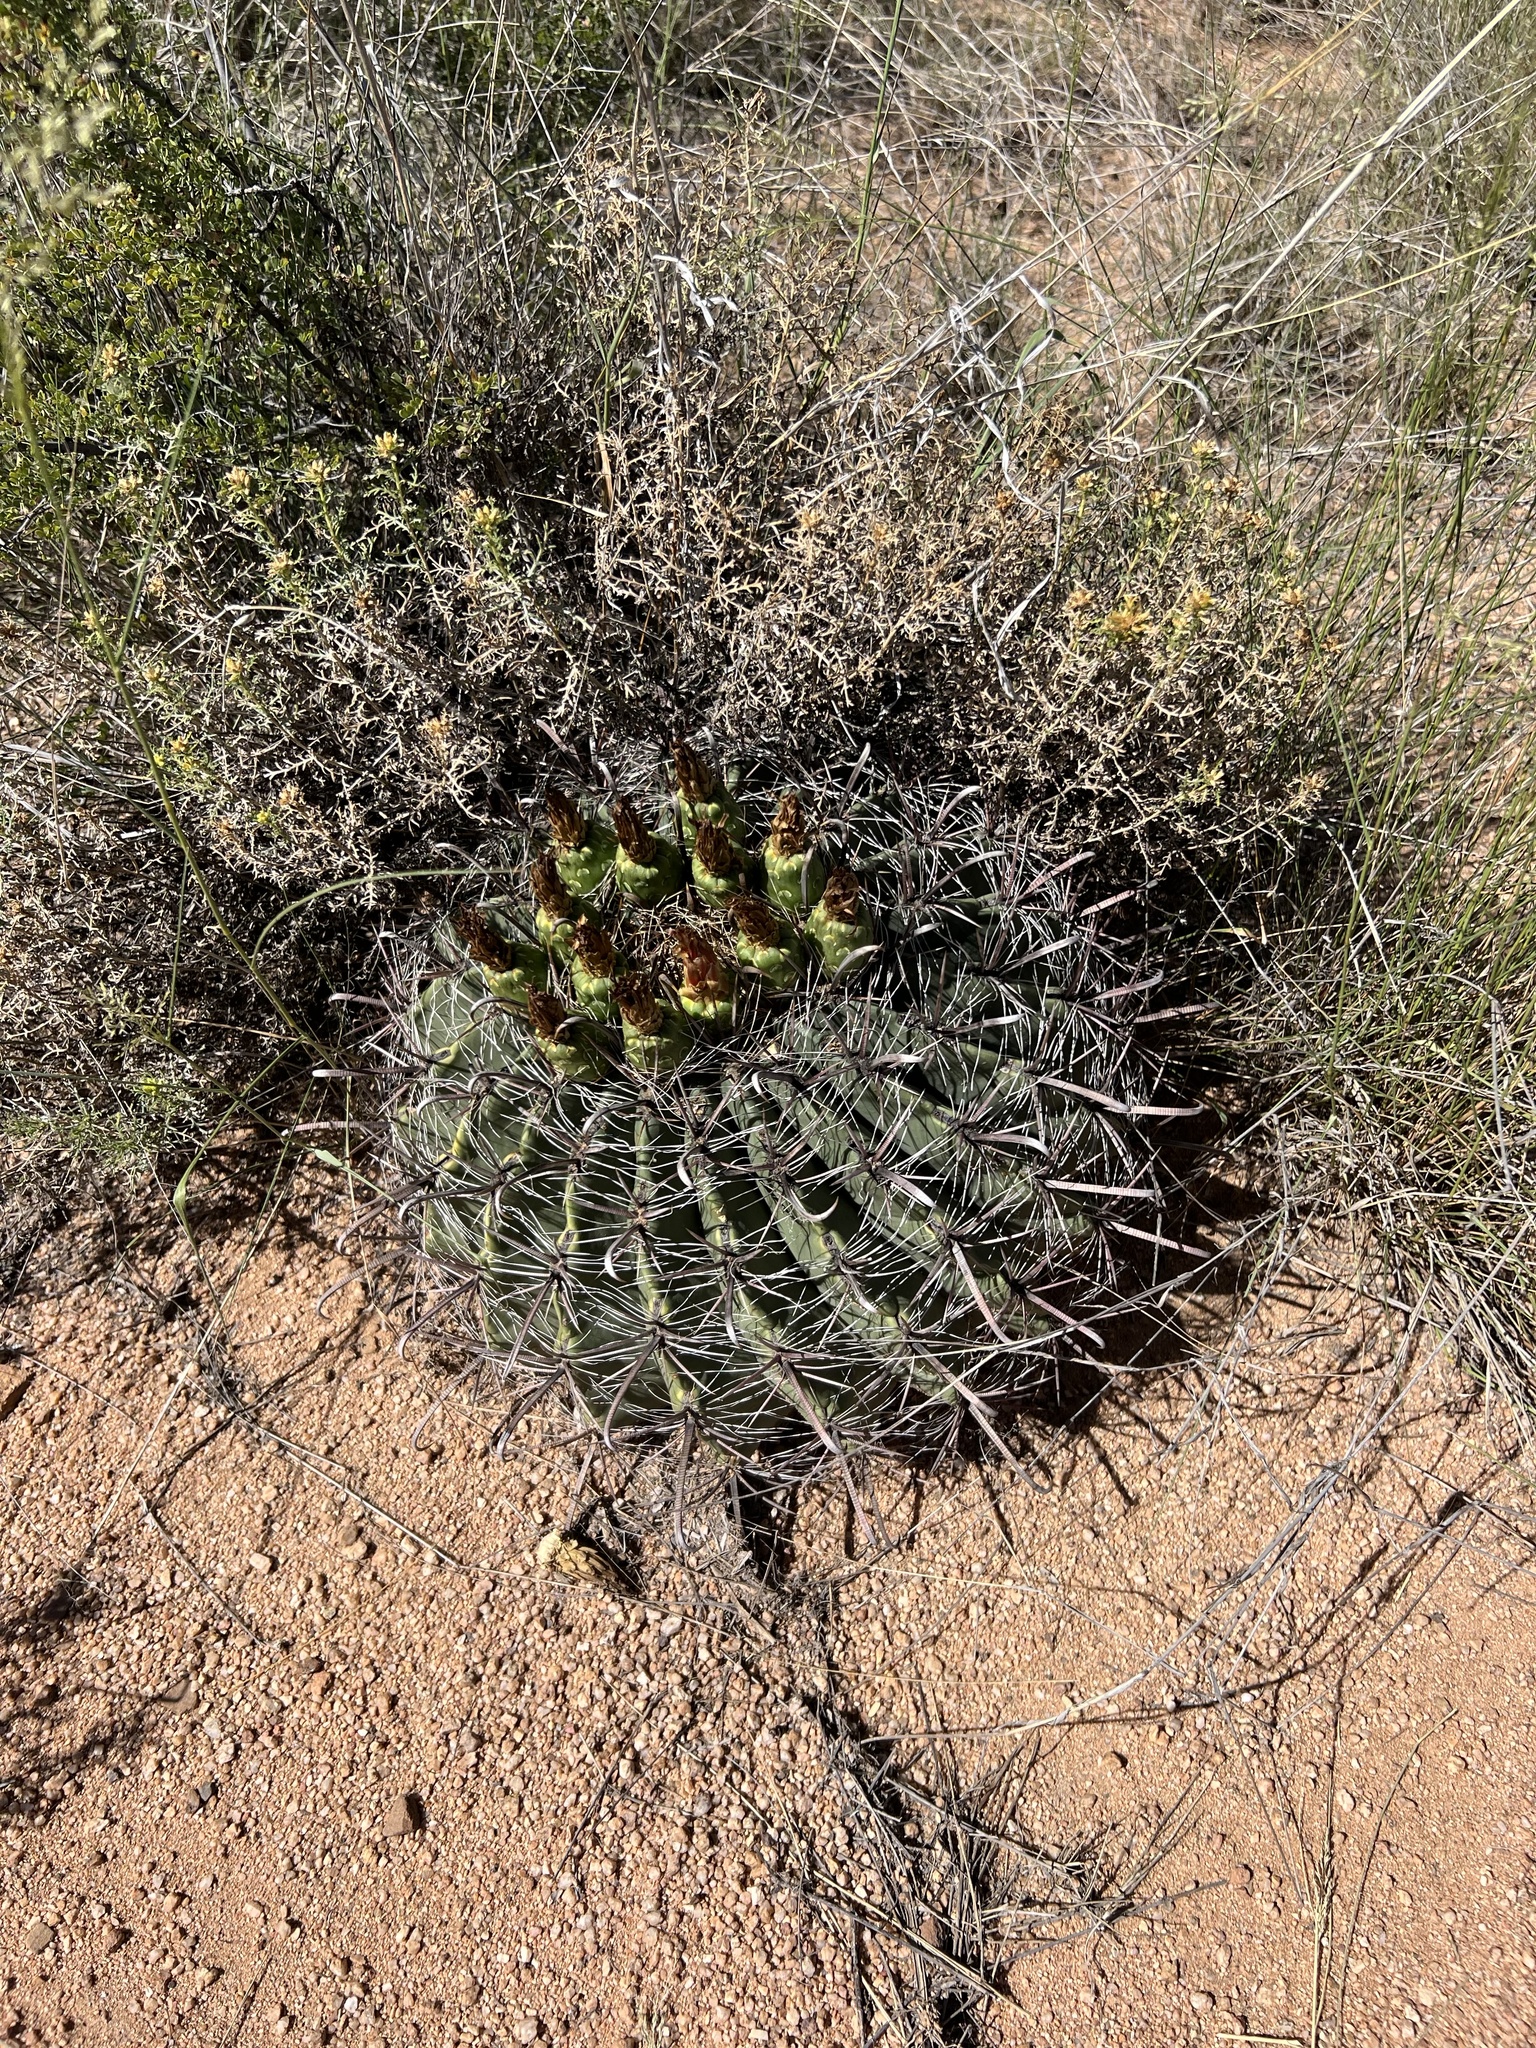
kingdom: Plantae
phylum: Tracheophyta
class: Magnoliopsida
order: Caryophyllales
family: Cactaceae
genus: Ferocactus
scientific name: Ferocactus wislizeni
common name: Candy barrel cactus
